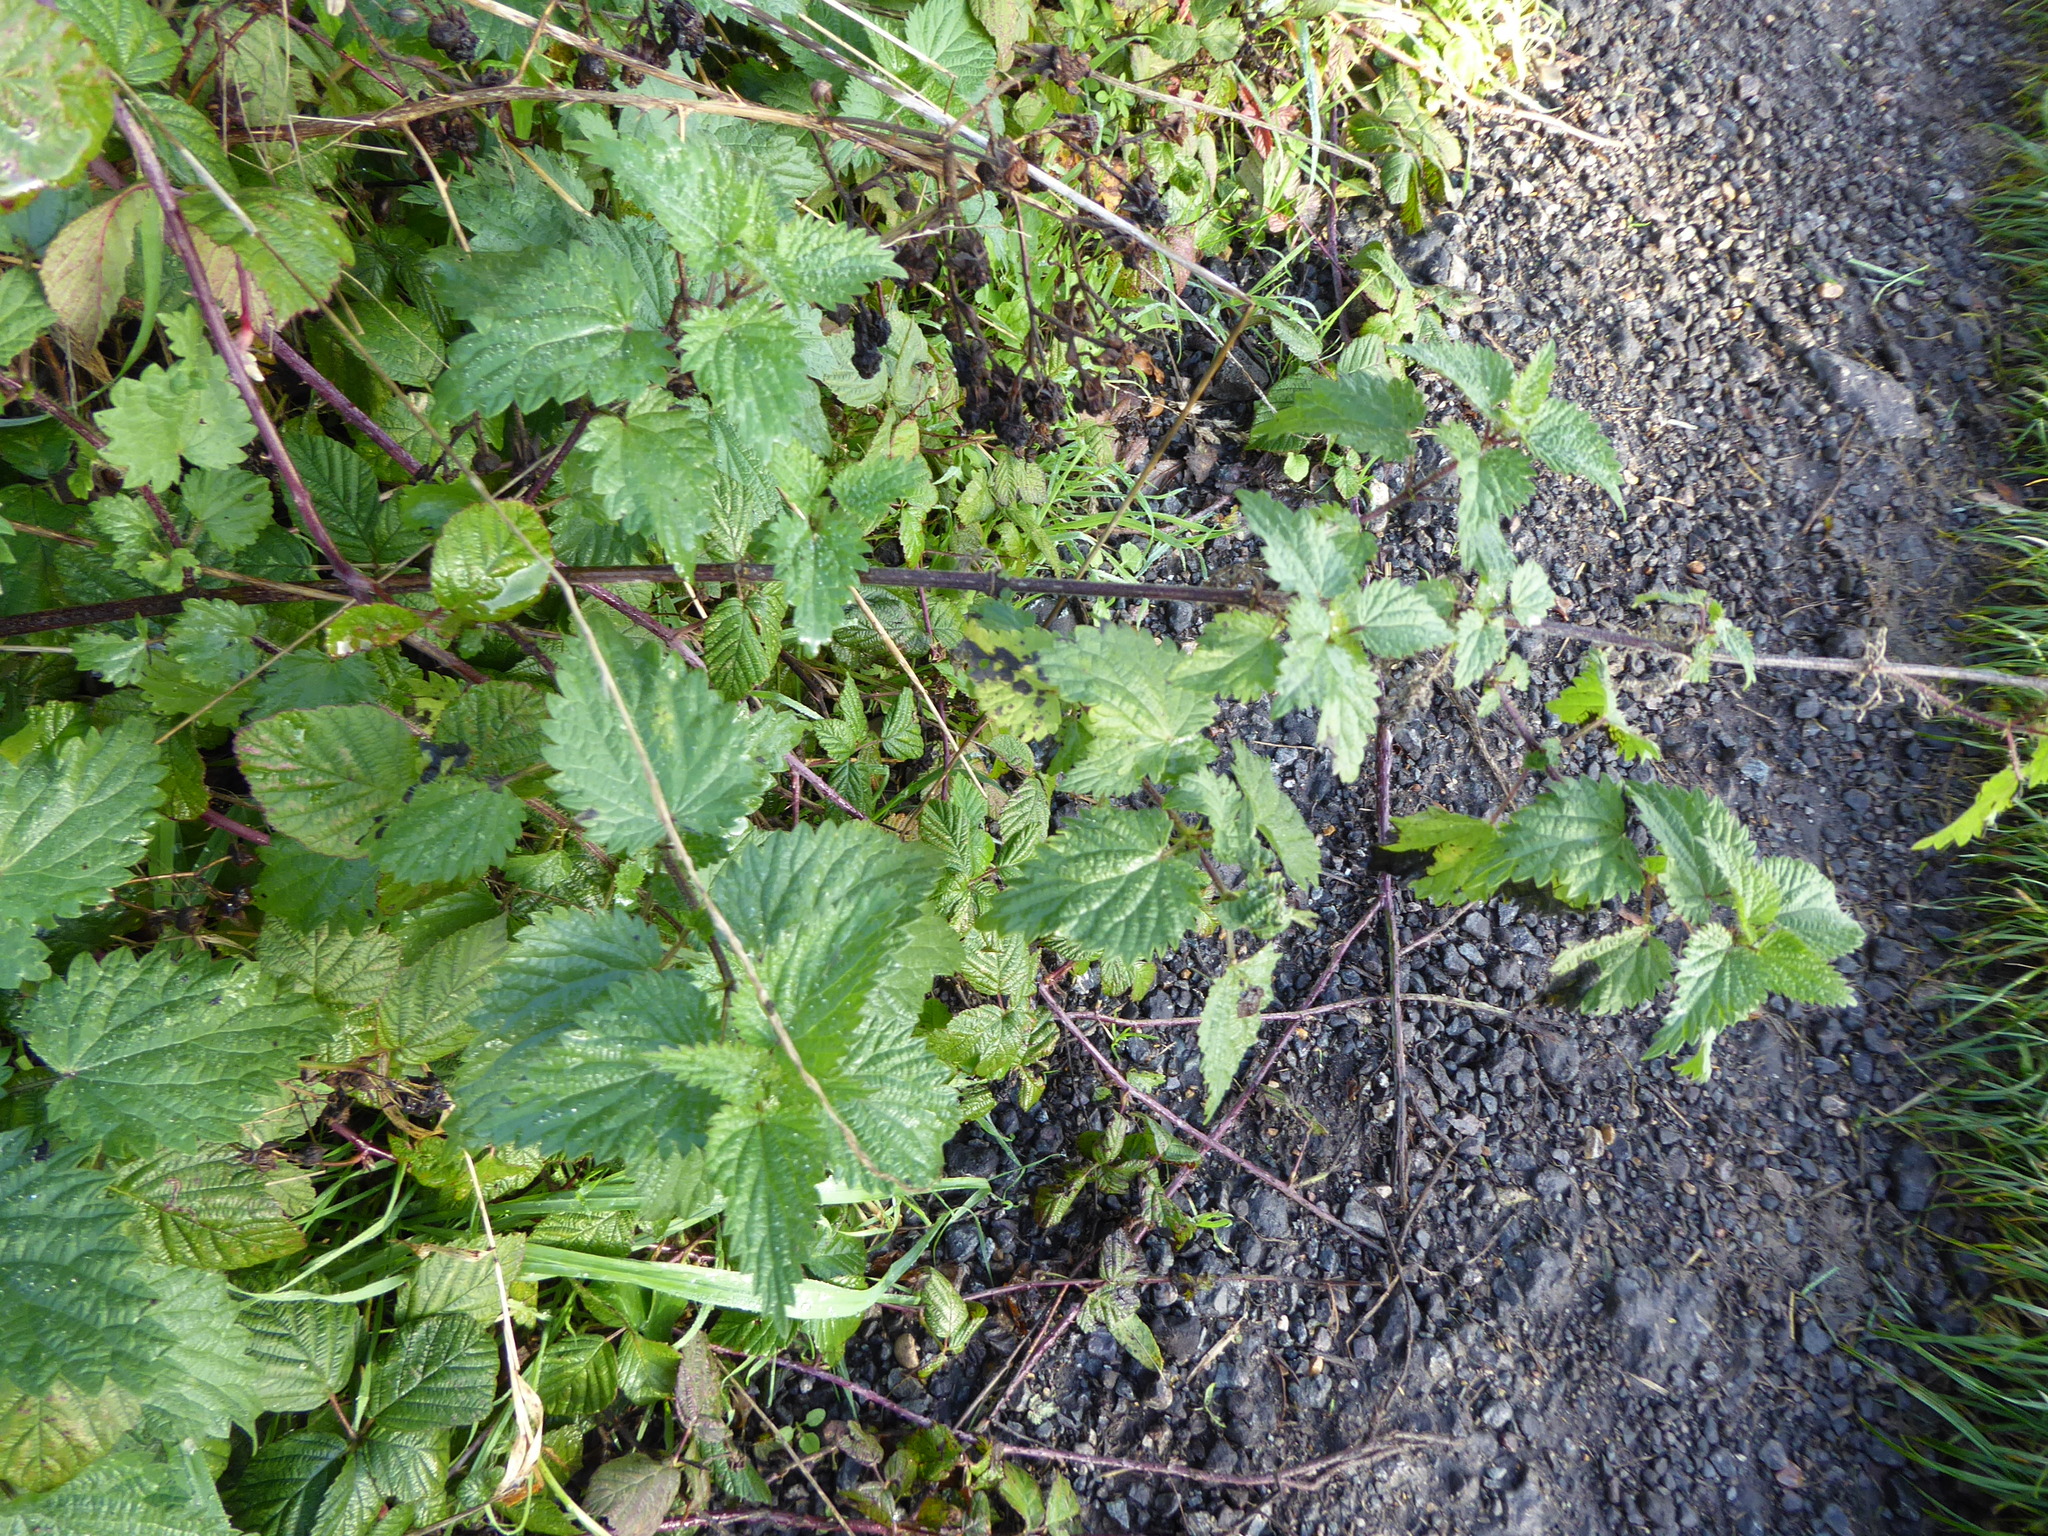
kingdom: Plantae
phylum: Tracheophyta
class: Magnoliopsida
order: Rosales
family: Urticaceae
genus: Urtica
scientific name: Urtica dioica
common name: Common nettle
